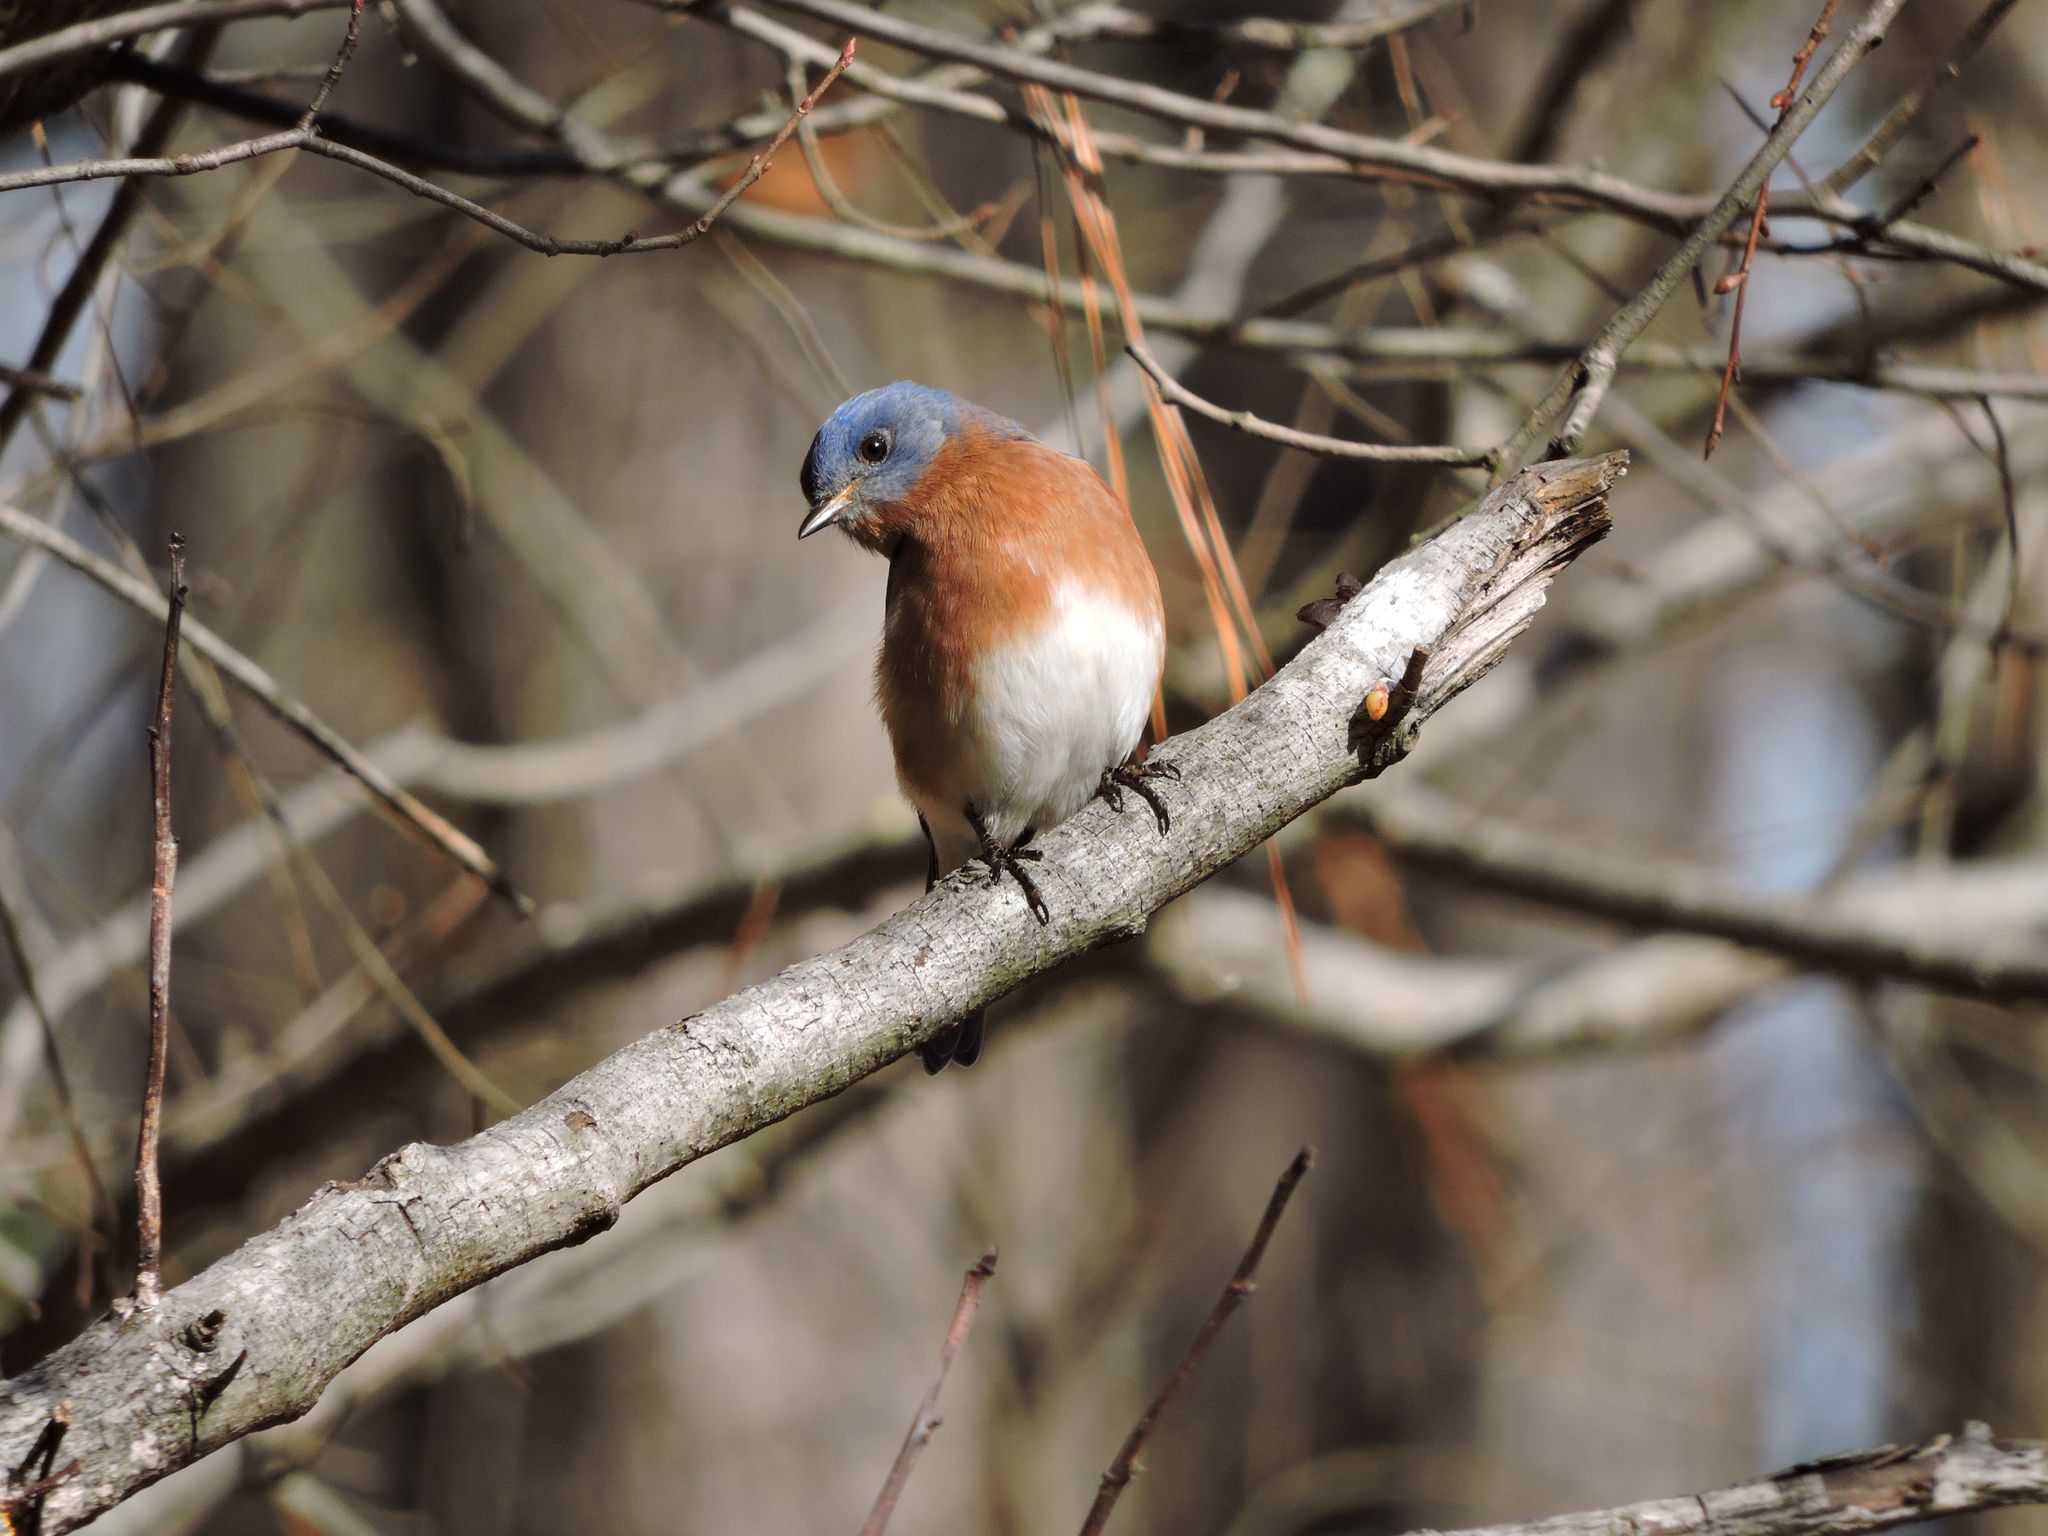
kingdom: Animalia
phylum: Chordata
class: Aves
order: Passeriformes
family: Turdidae
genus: Sialia
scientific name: Sialia sialis
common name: Eastern bluebird
